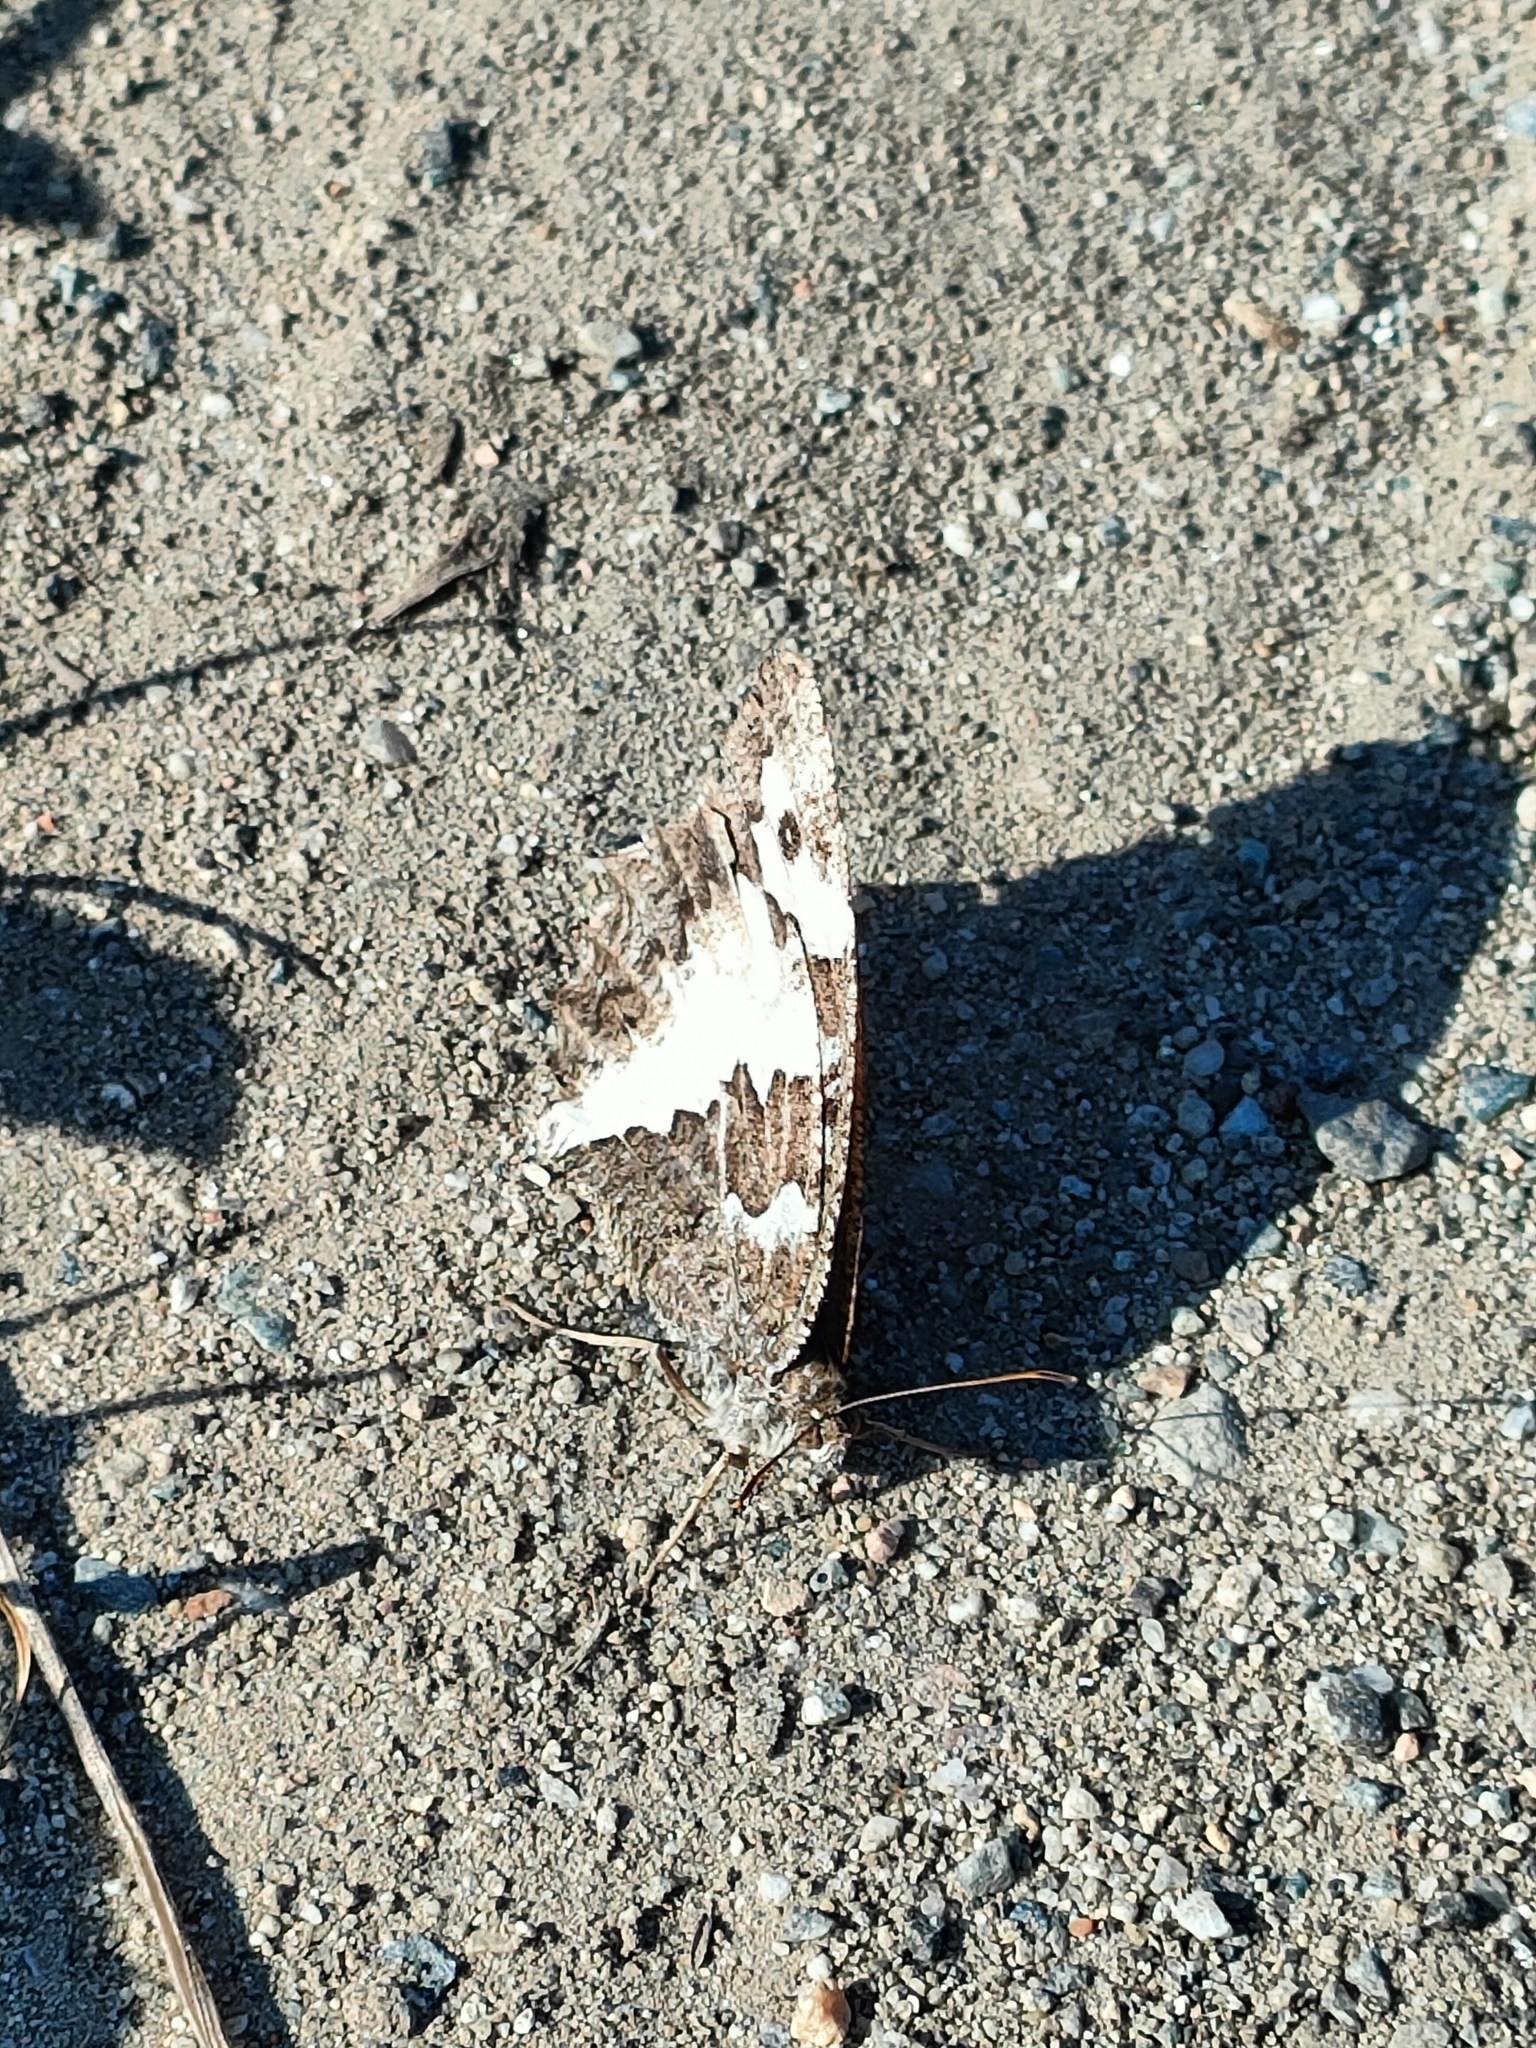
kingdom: Animalia
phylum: Arthropoda
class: Insecta
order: Lepidoptera
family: Lycaenidae
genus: Loweia
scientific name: Loweia tityrus
